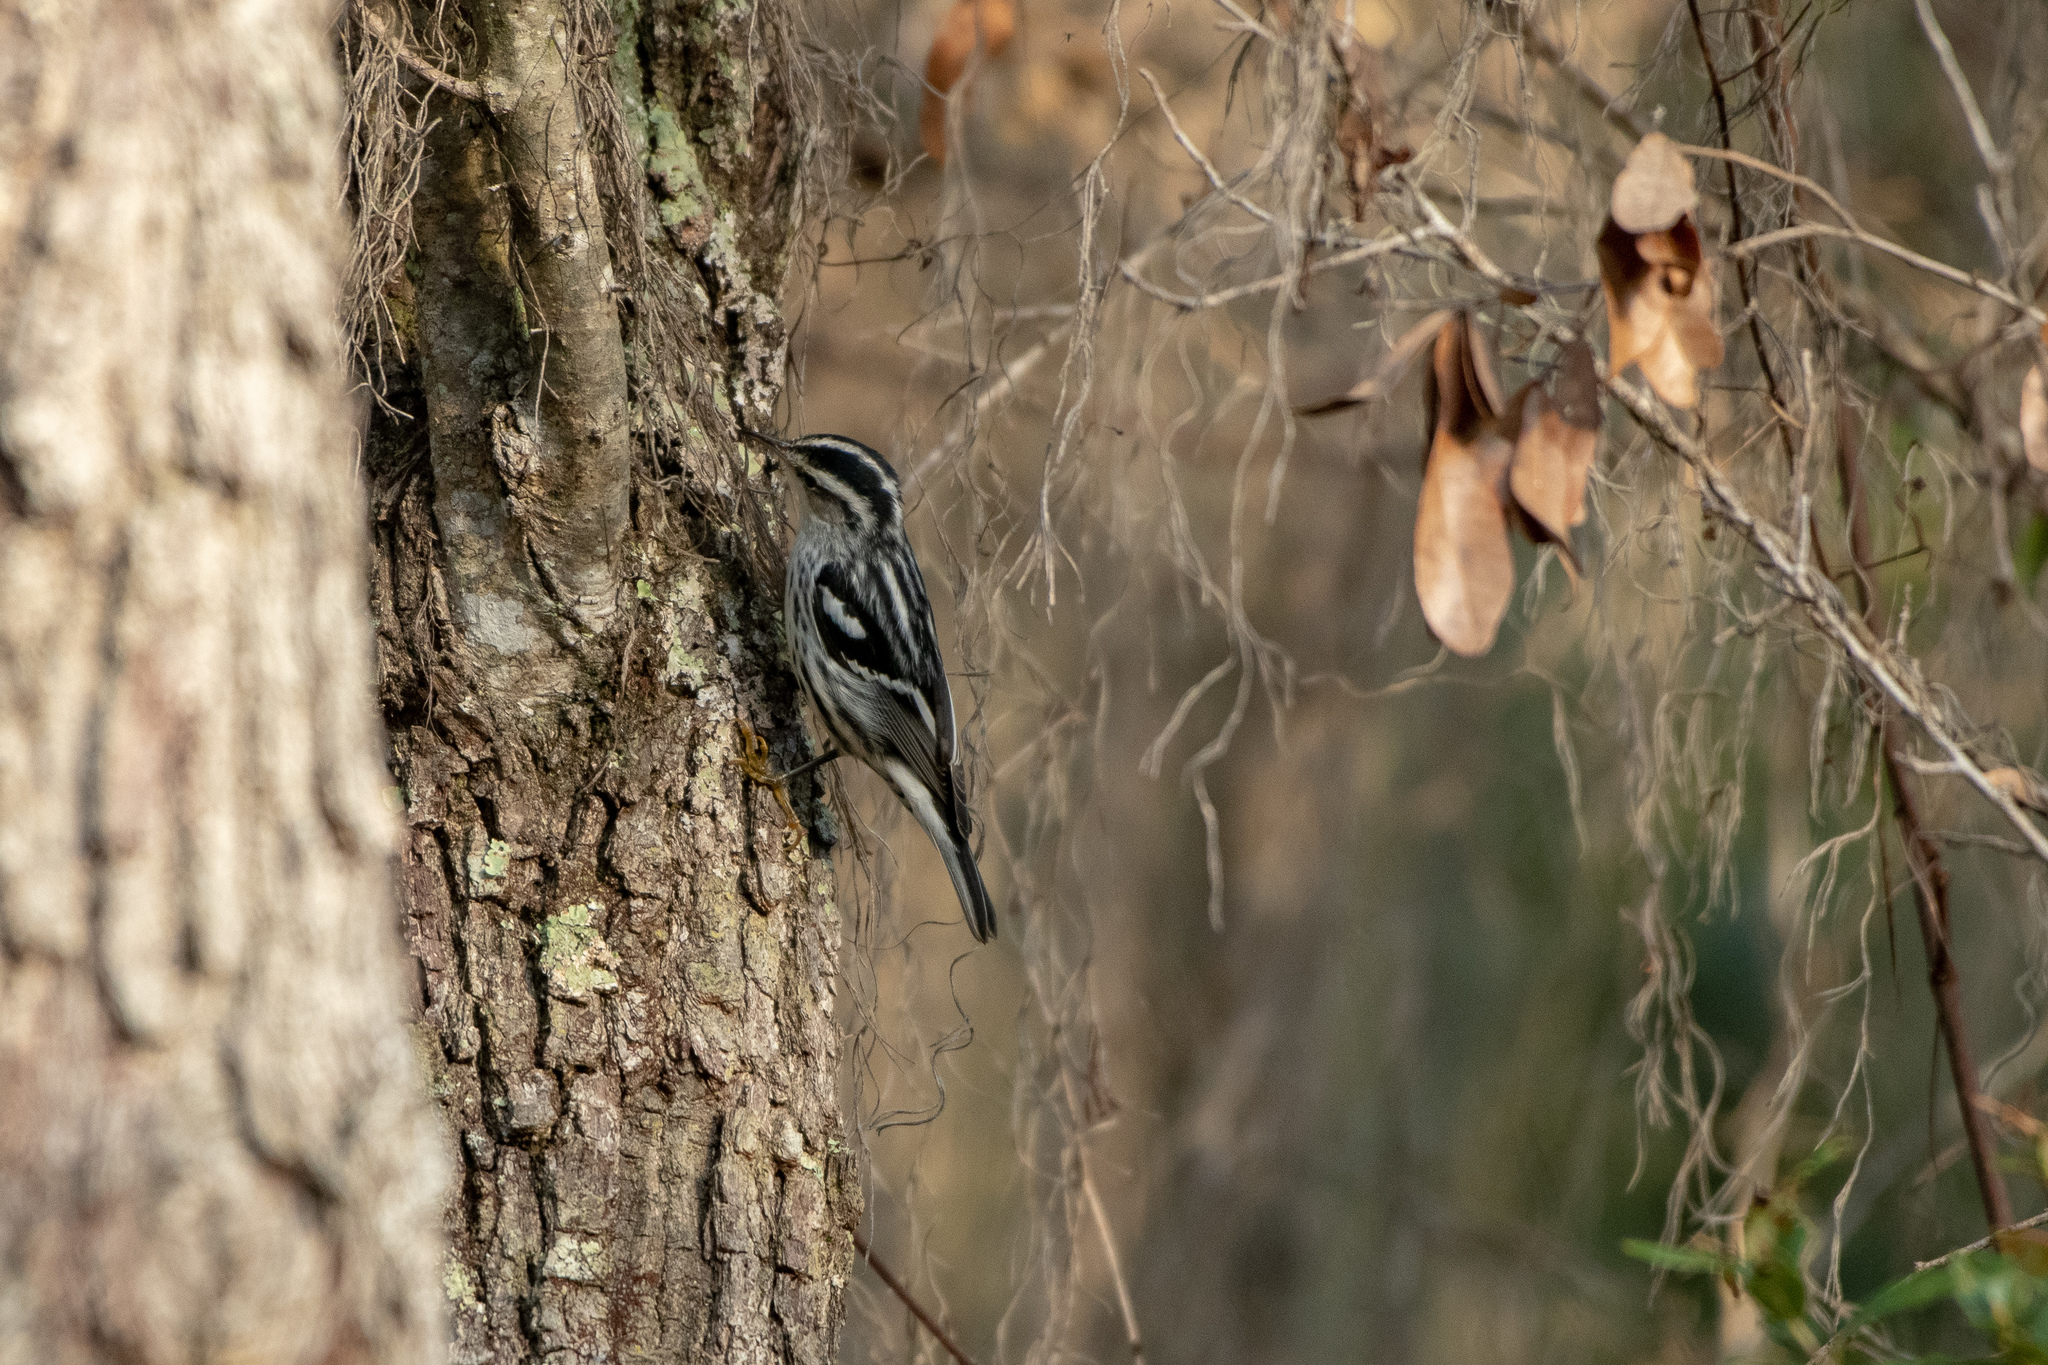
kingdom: Animalia
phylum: Chordata
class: Aves
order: Passeriformes
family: Parulidae
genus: Mniotilta
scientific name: Mniotilta varia
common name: Black-and-white warbler
